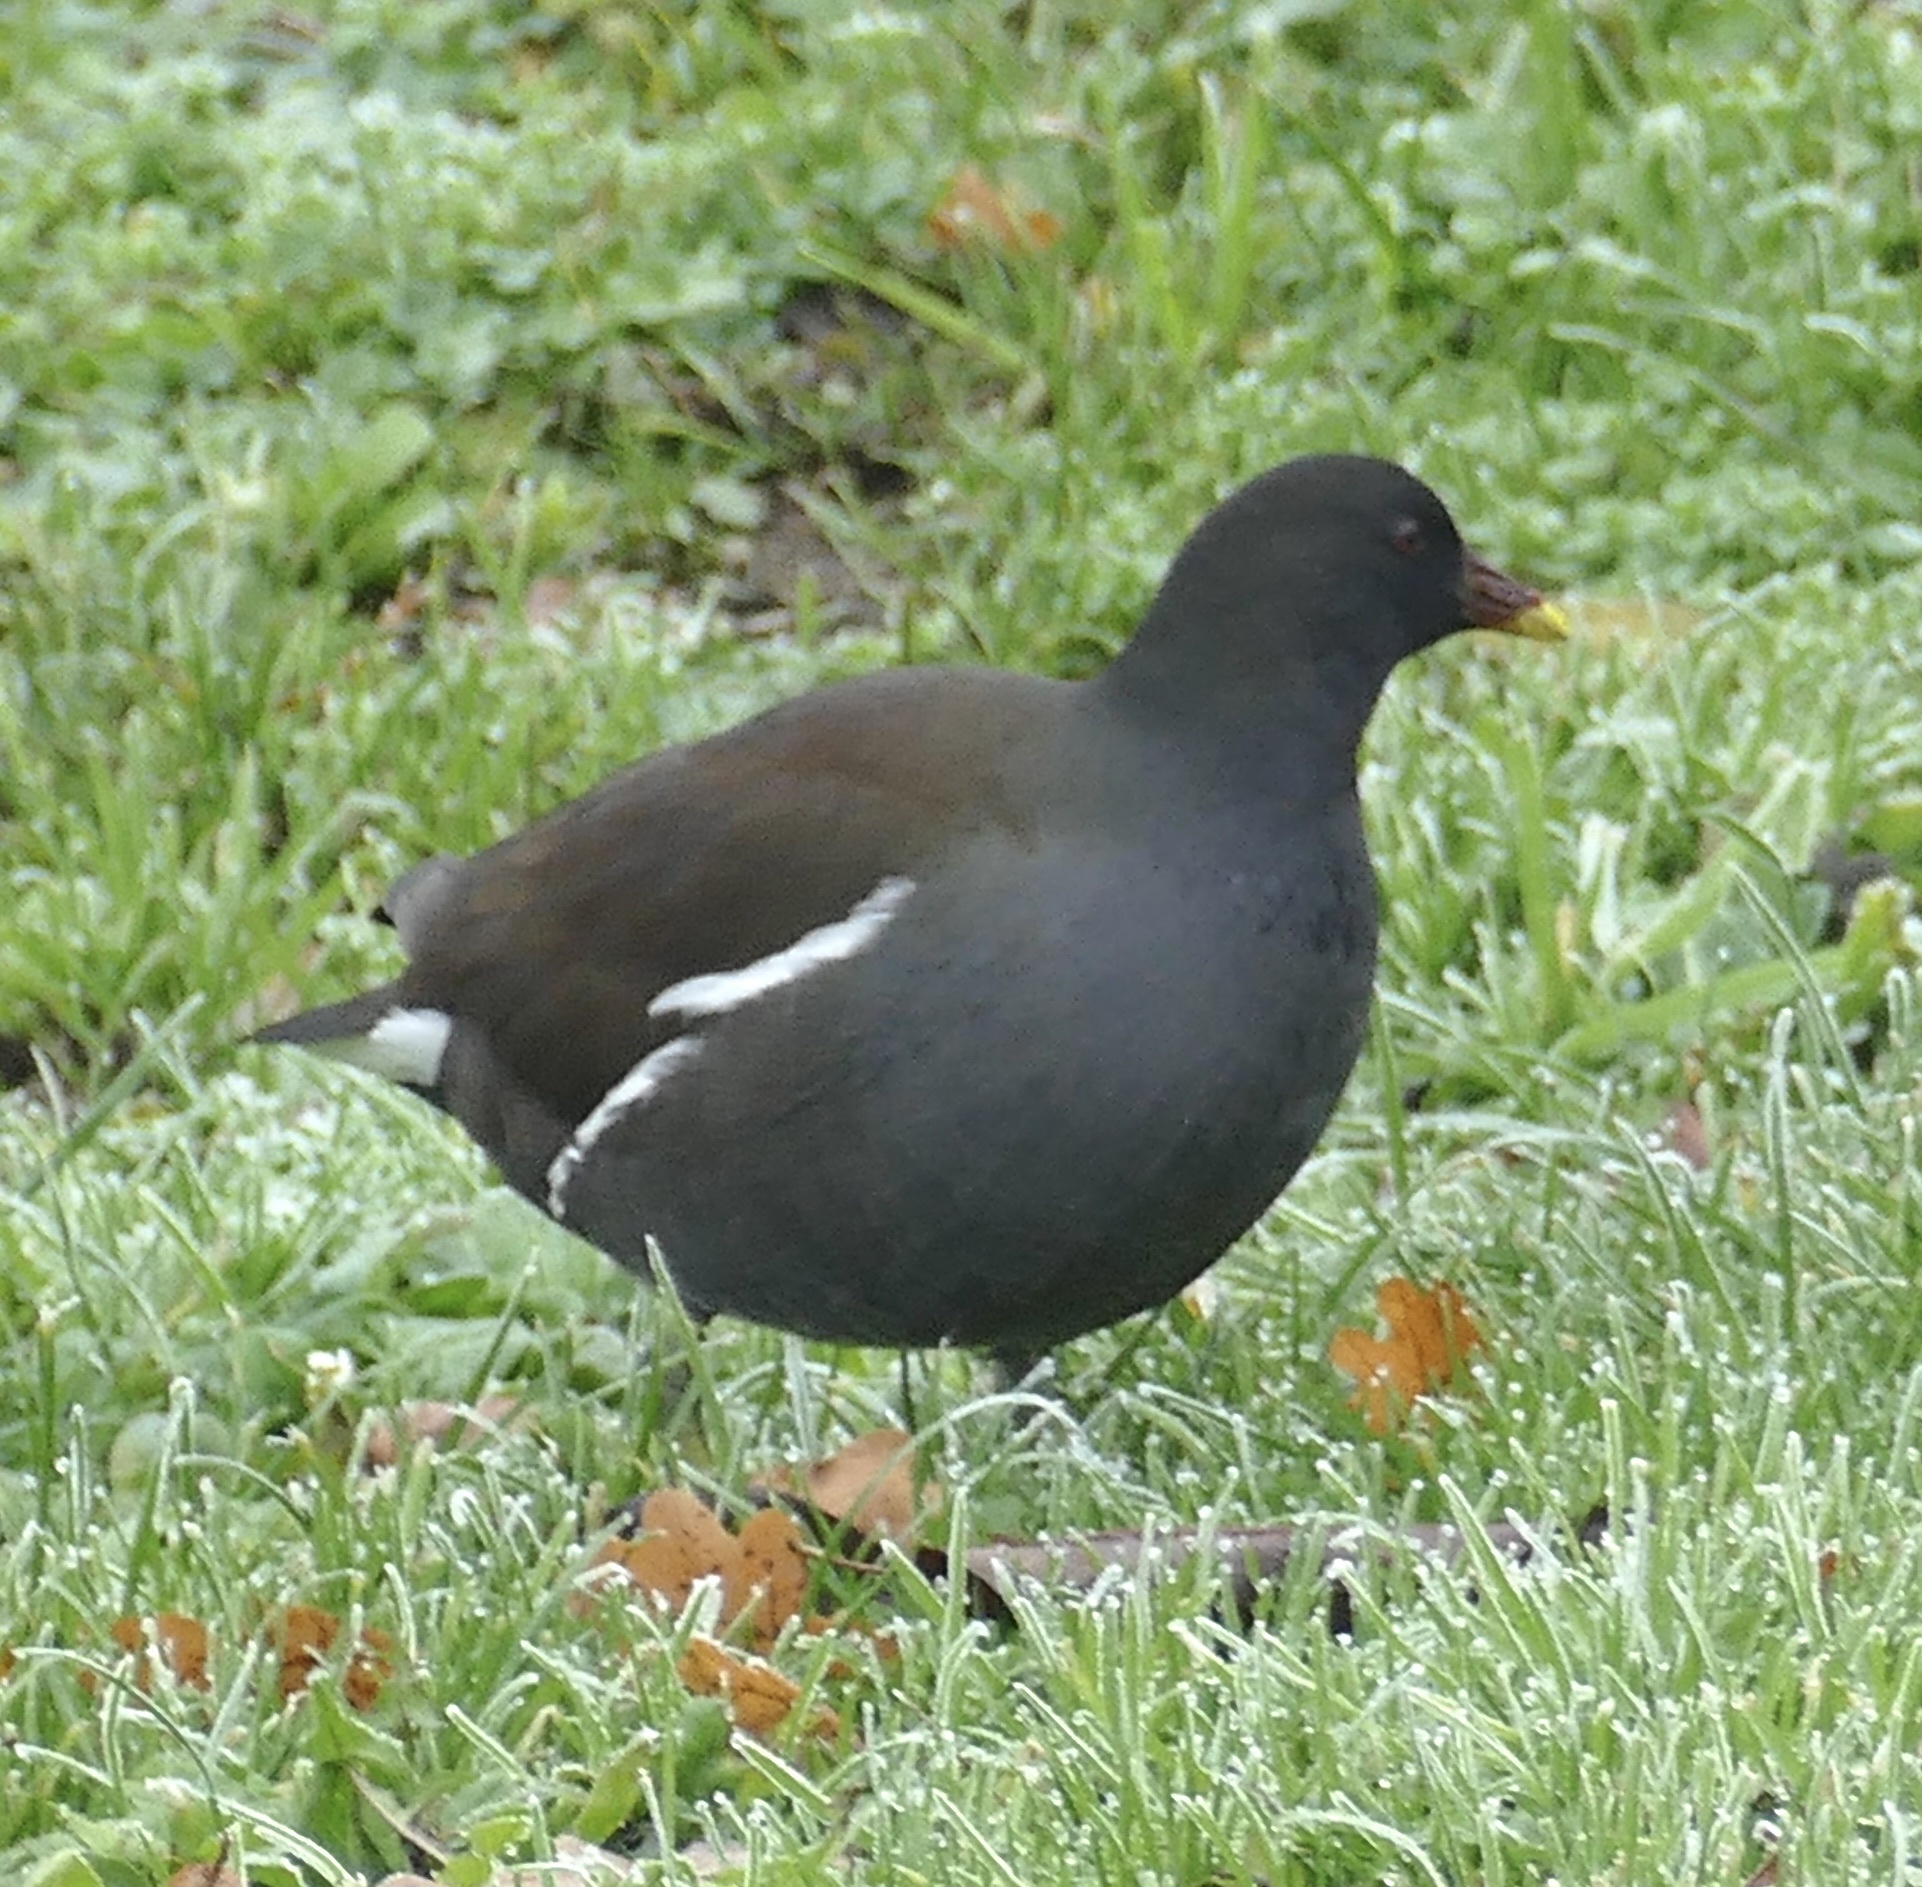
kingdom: Animalia
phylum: Chordata
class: Aves
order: Gruiformes
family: Rallidae
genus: Gallinula
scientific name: Gallinula chloropus
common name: Common moorhen
